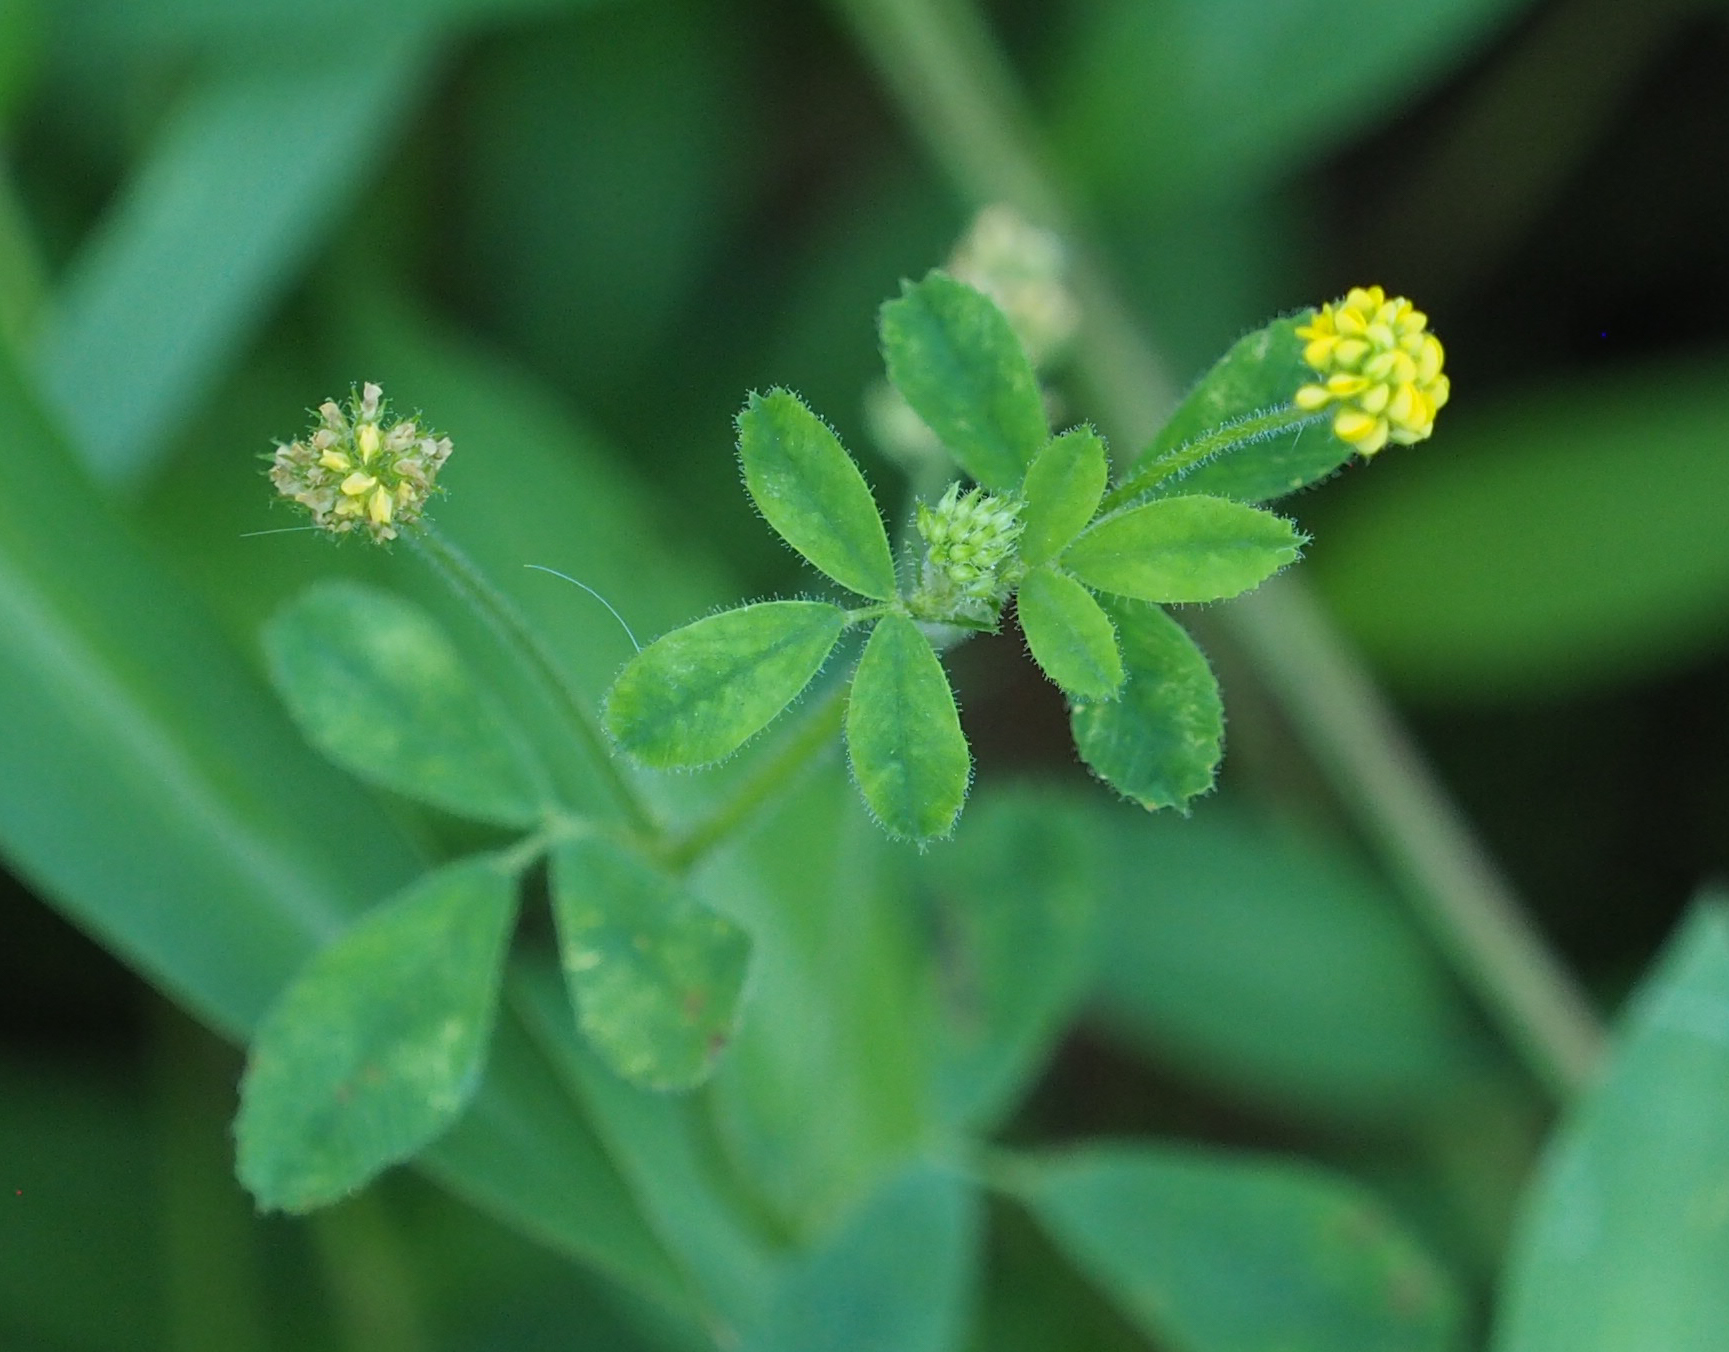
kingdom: Plantae
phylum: Tracheophyta
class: Magnoliopsida
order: Fabales
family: Fabaceae
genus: Medicago
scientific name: Medicago lupulina
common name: Black medick
